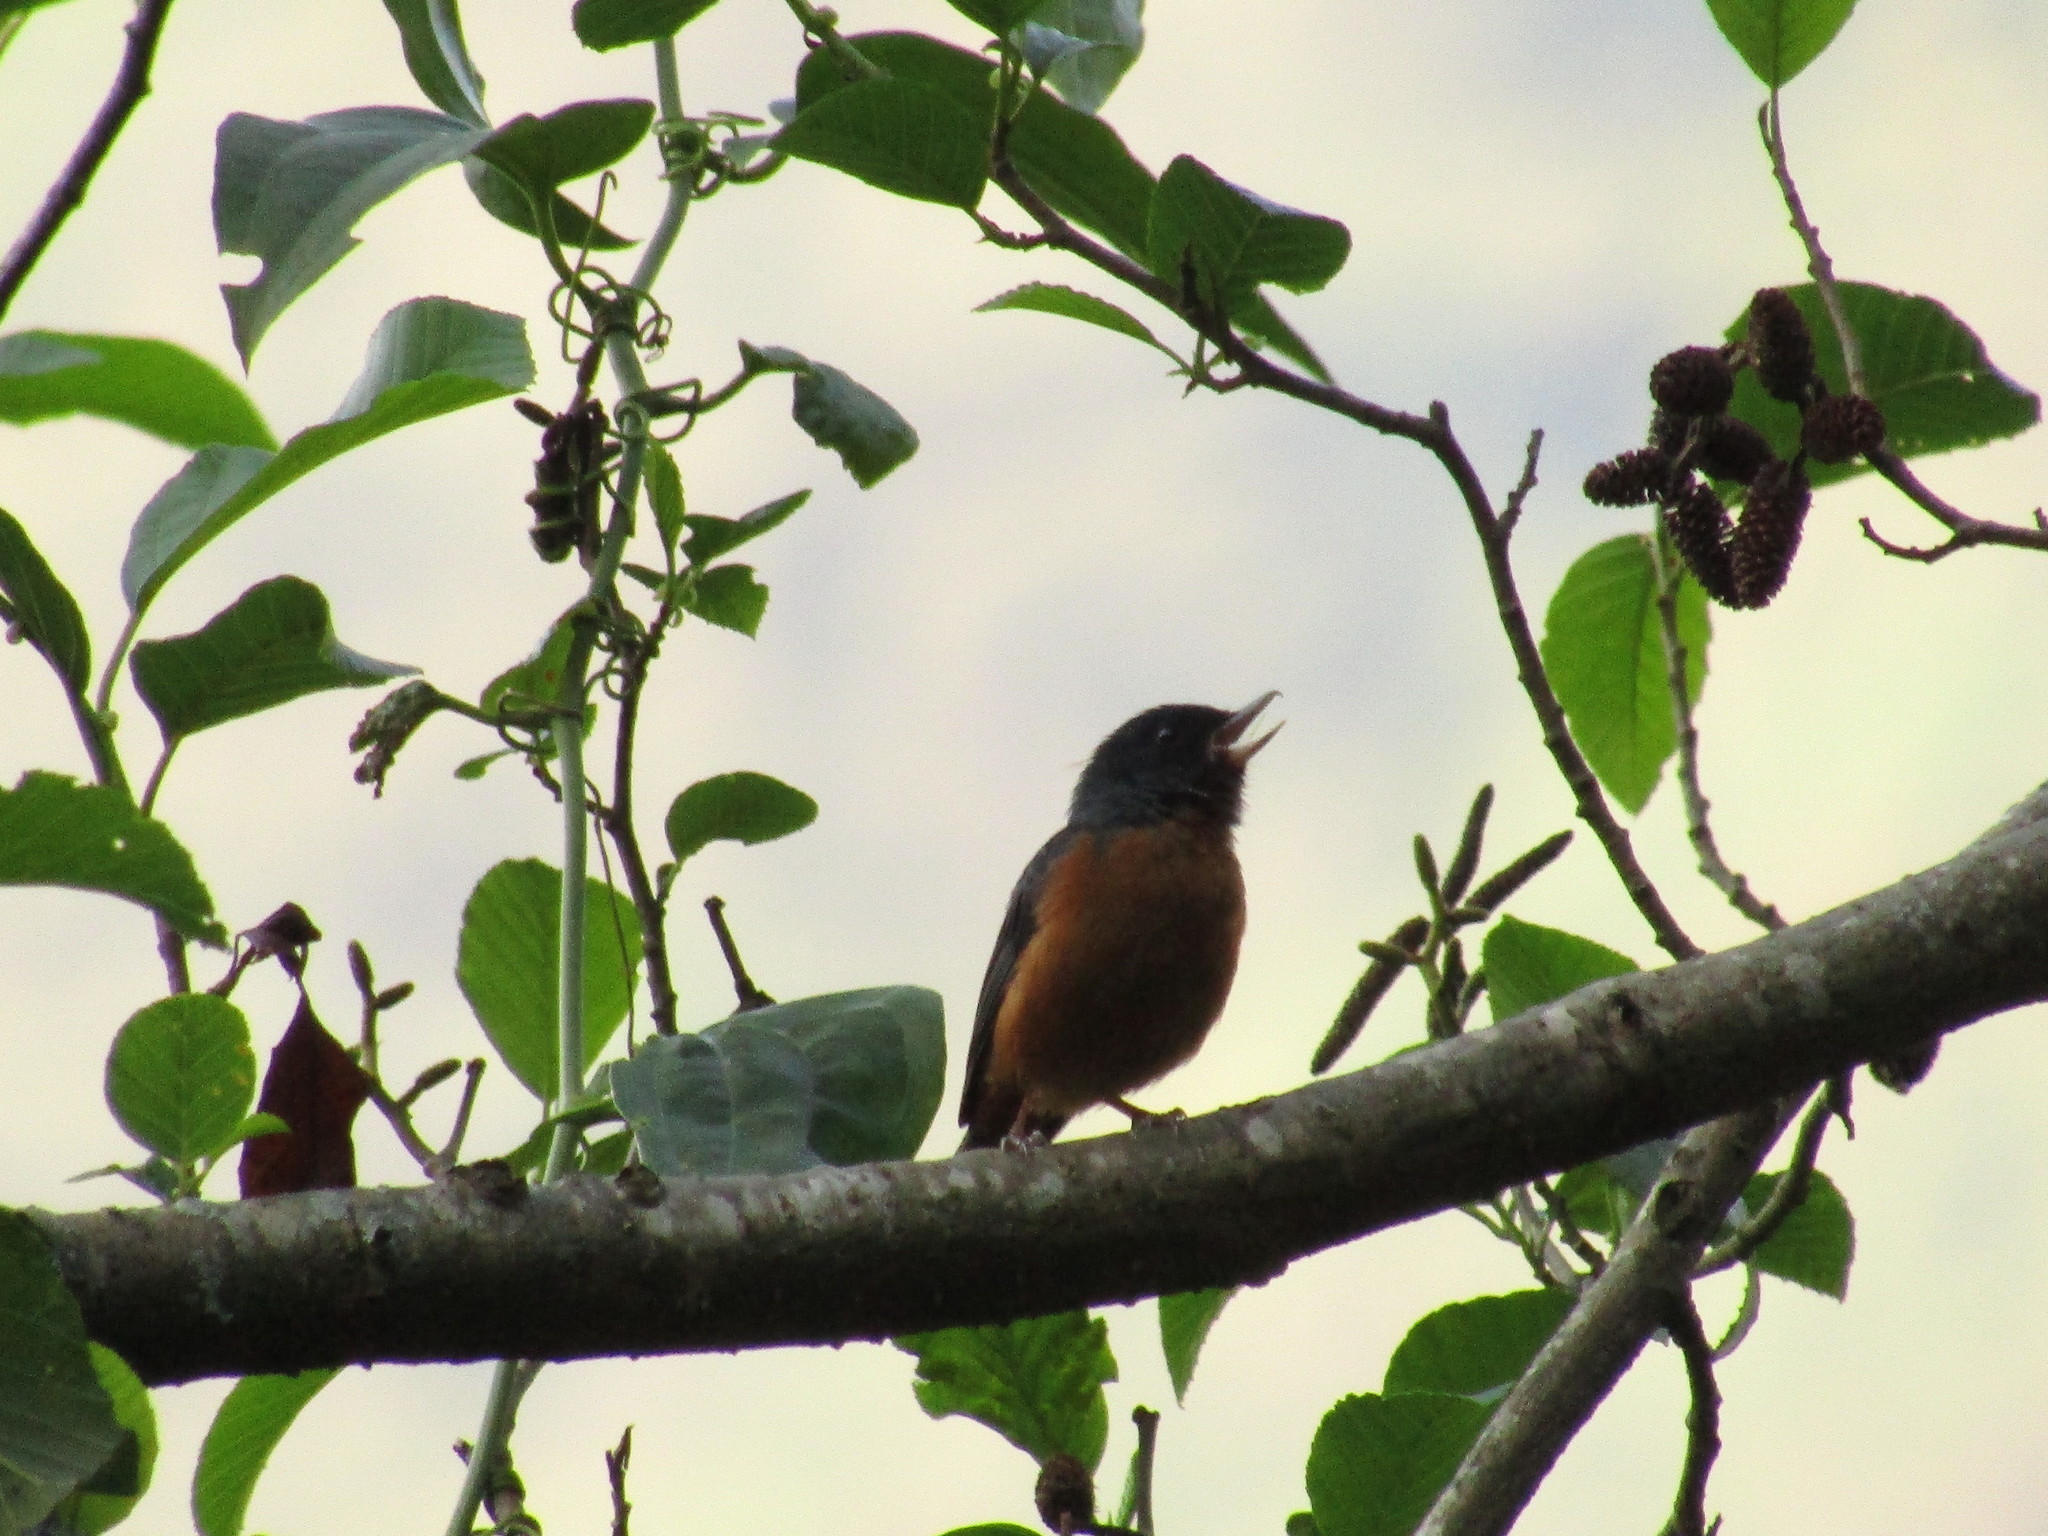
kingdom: Animalia
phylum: Chordata
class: Aves
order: Passeriformes
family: Thraupidae
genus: Diglossa
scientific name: Diglossa baritula
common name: Cinnamon-bellied flowerpiercer
